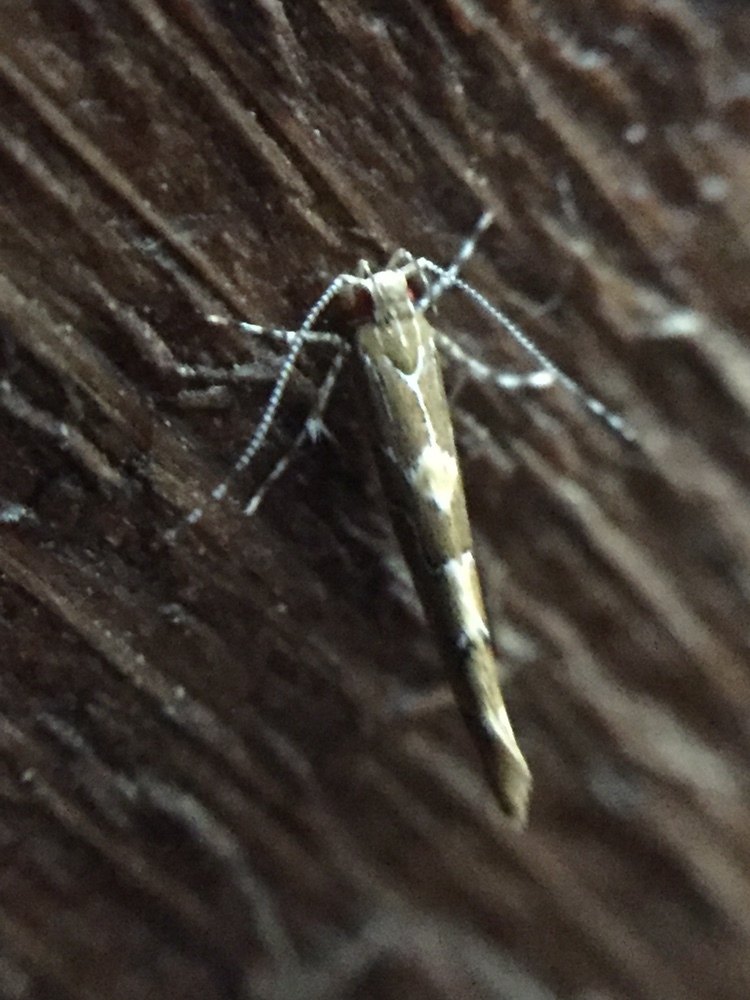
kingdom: Animalia
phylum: Arthropoda
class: Insecta
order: Lepidoptera
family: Cosmopterigidae
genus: Pyroderces
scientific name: Pyroderces apparitella
